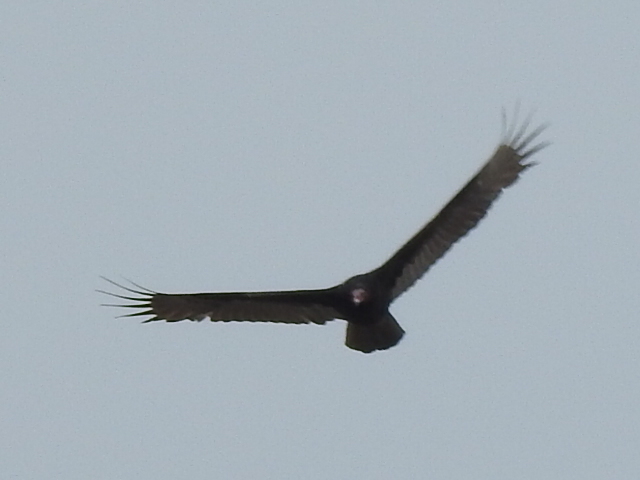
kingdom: Animalia
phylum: Chordata
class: Aves
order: Accipitriformes
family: Cathartidae
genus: Cathartes
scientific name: Cathartes aura
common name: Turkey vulture
